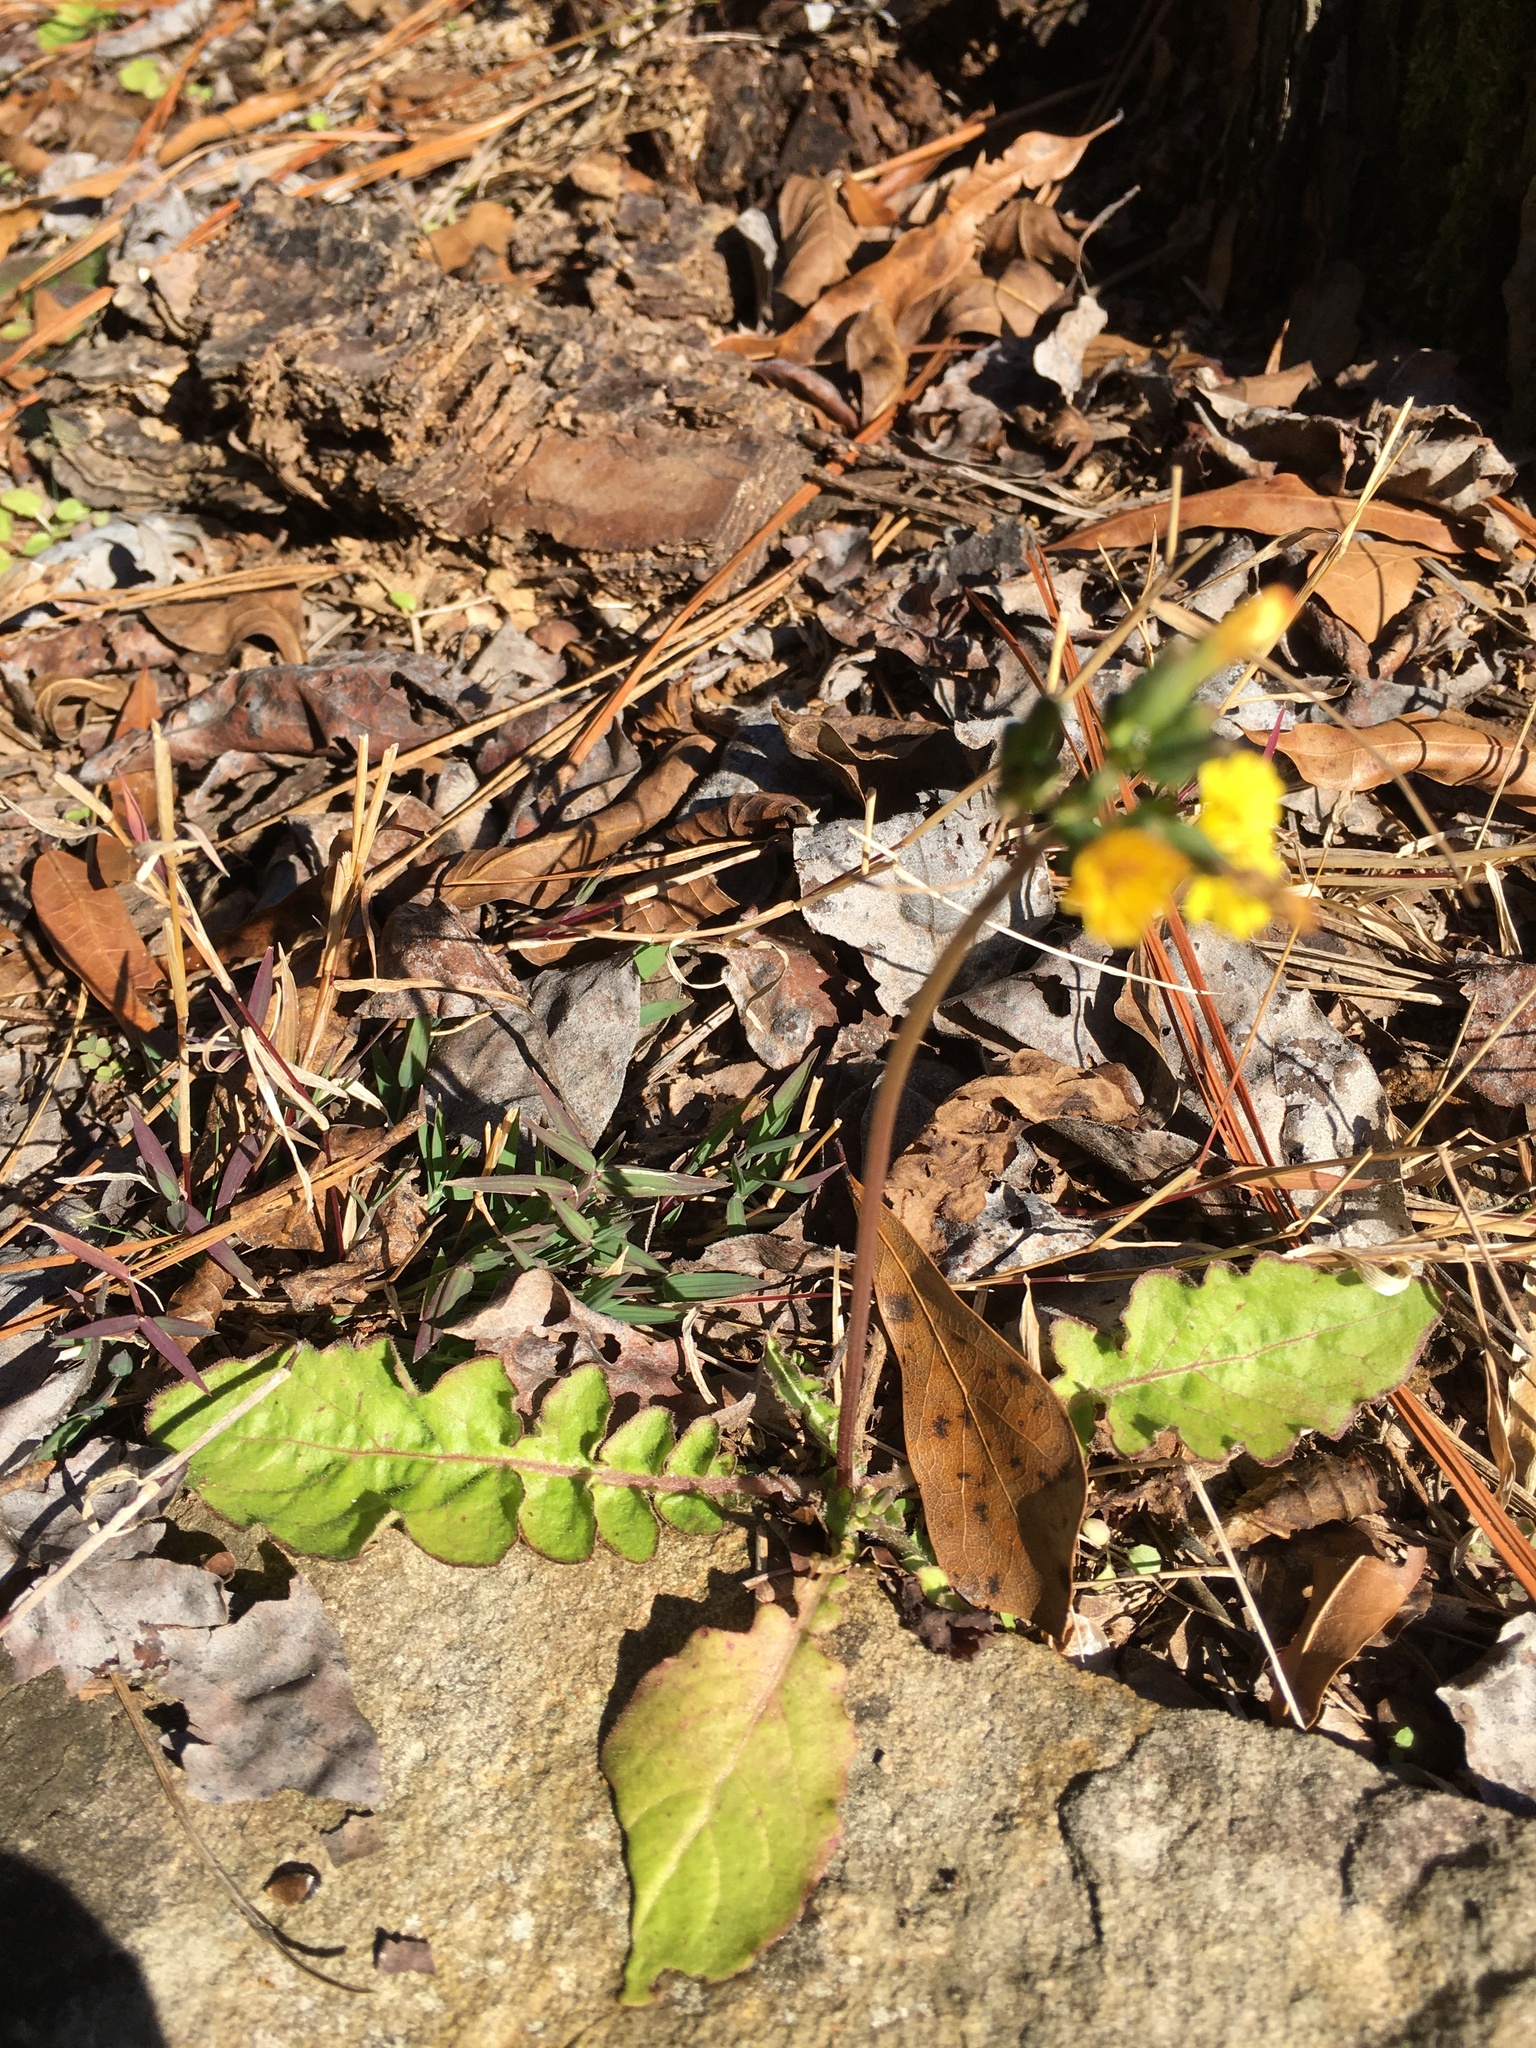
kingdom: Plantae
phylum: Tracheophyta
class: Magnoliopsida
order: Asterales
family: Asteraceae
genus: Youngia
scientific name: Youngia japonica
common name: Oriental false hawksbeard
